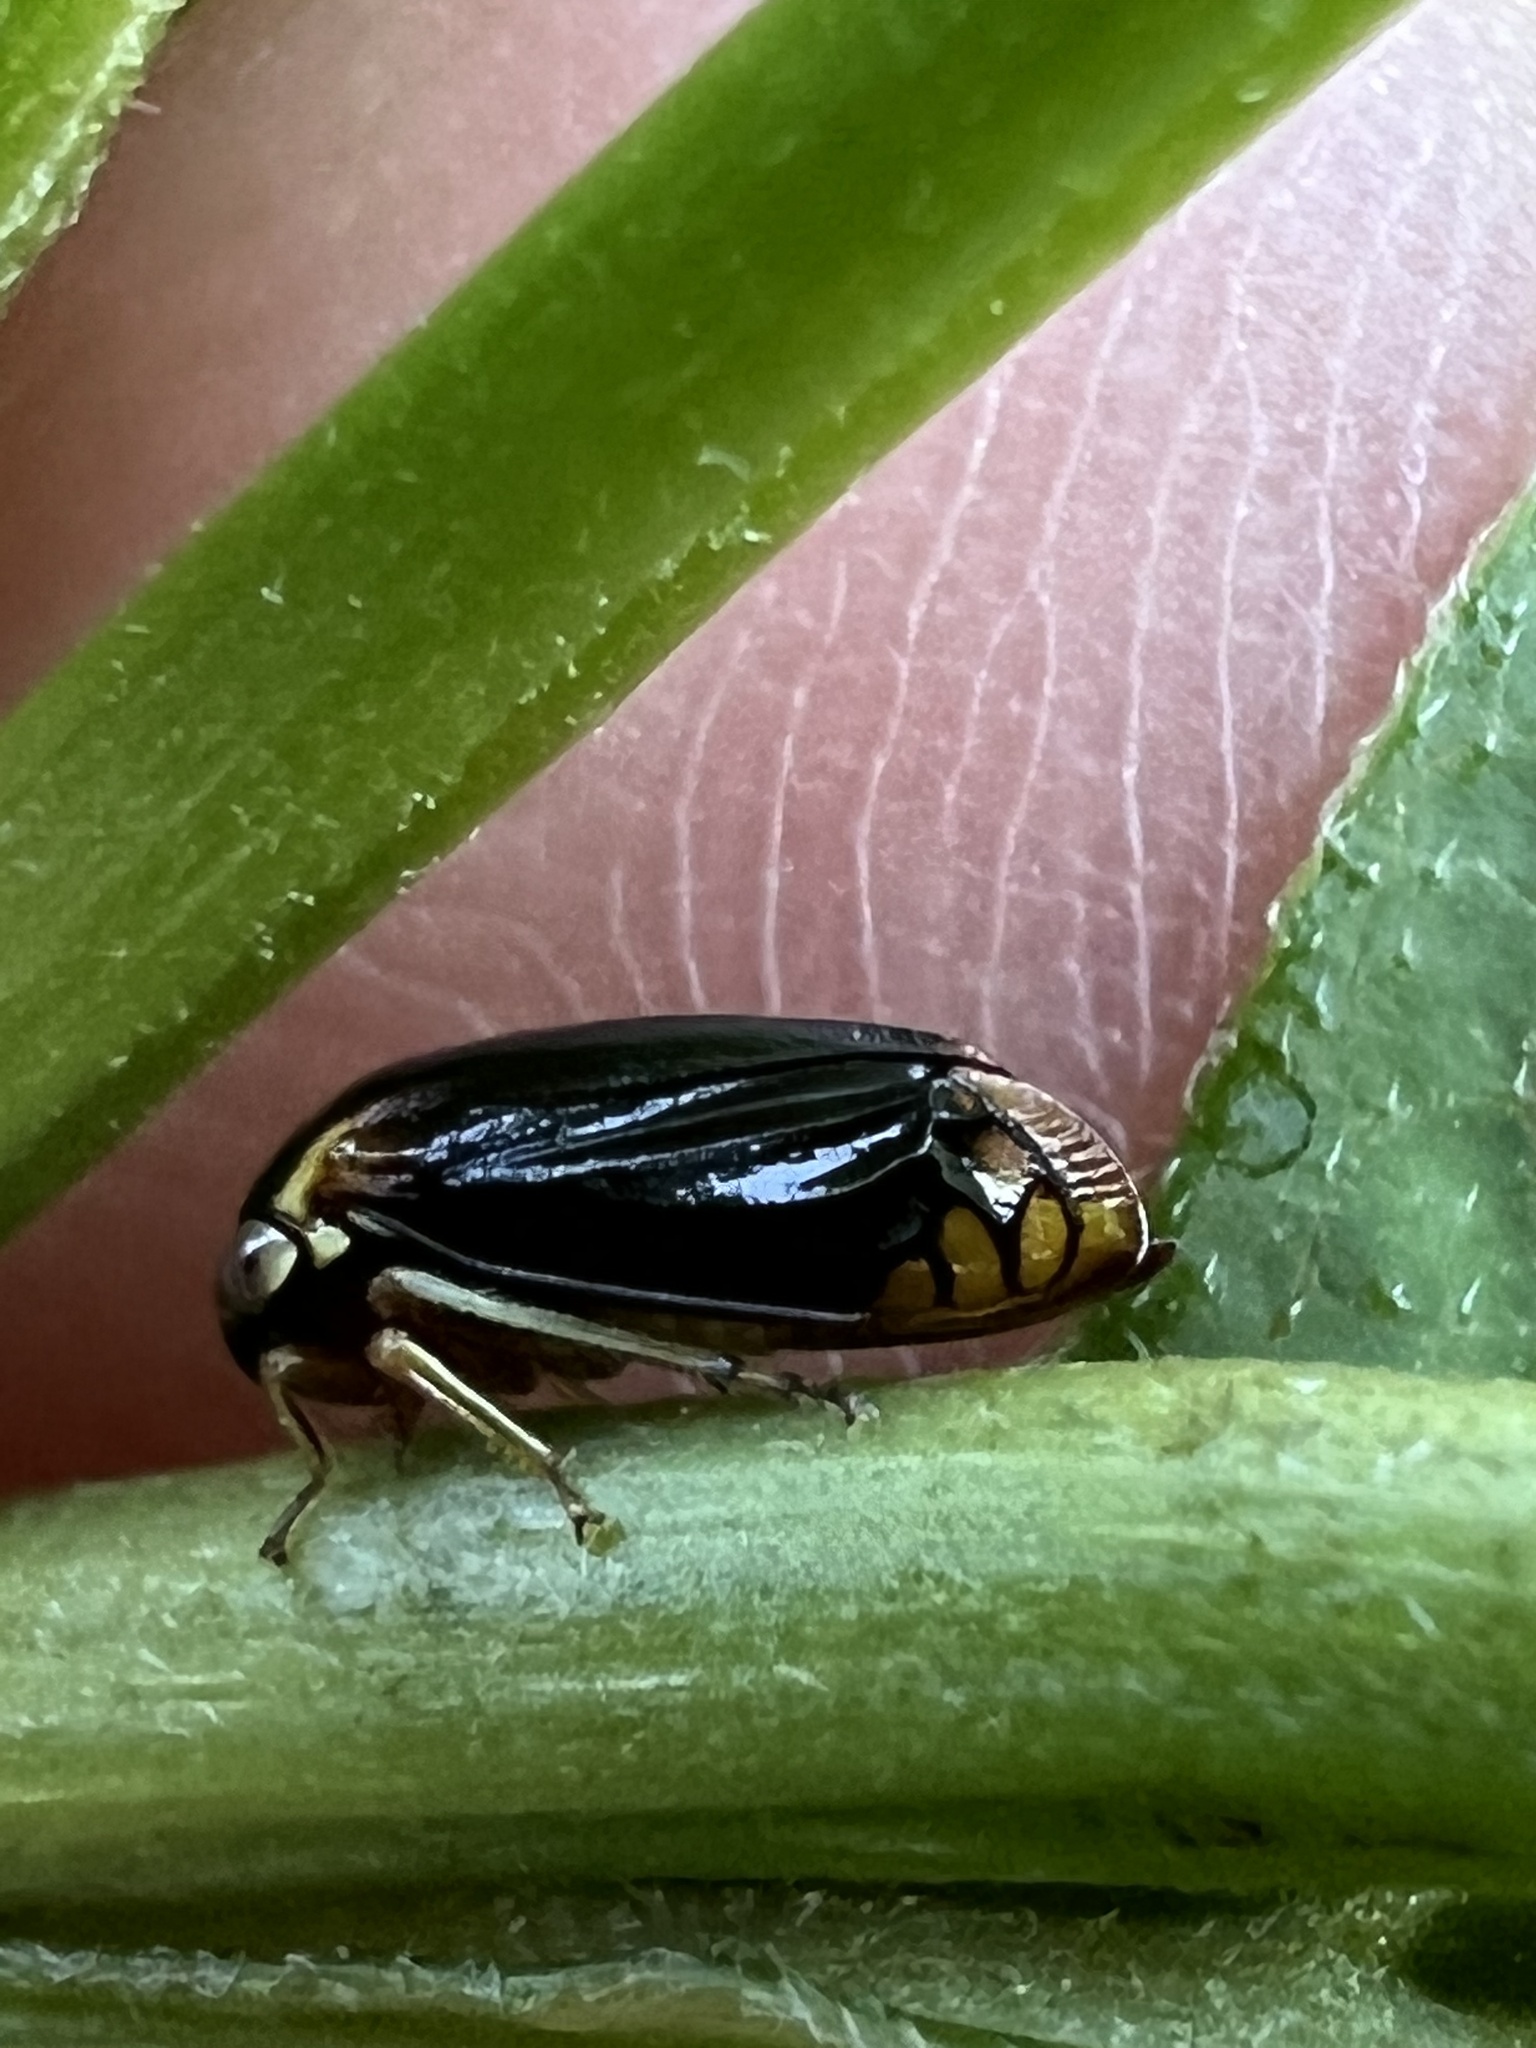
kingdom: Animalia
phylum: Arthropoda
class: Insecta
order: Hemiptera
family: Membracidae
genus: Acutalis
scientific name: Acutalis tartarea
